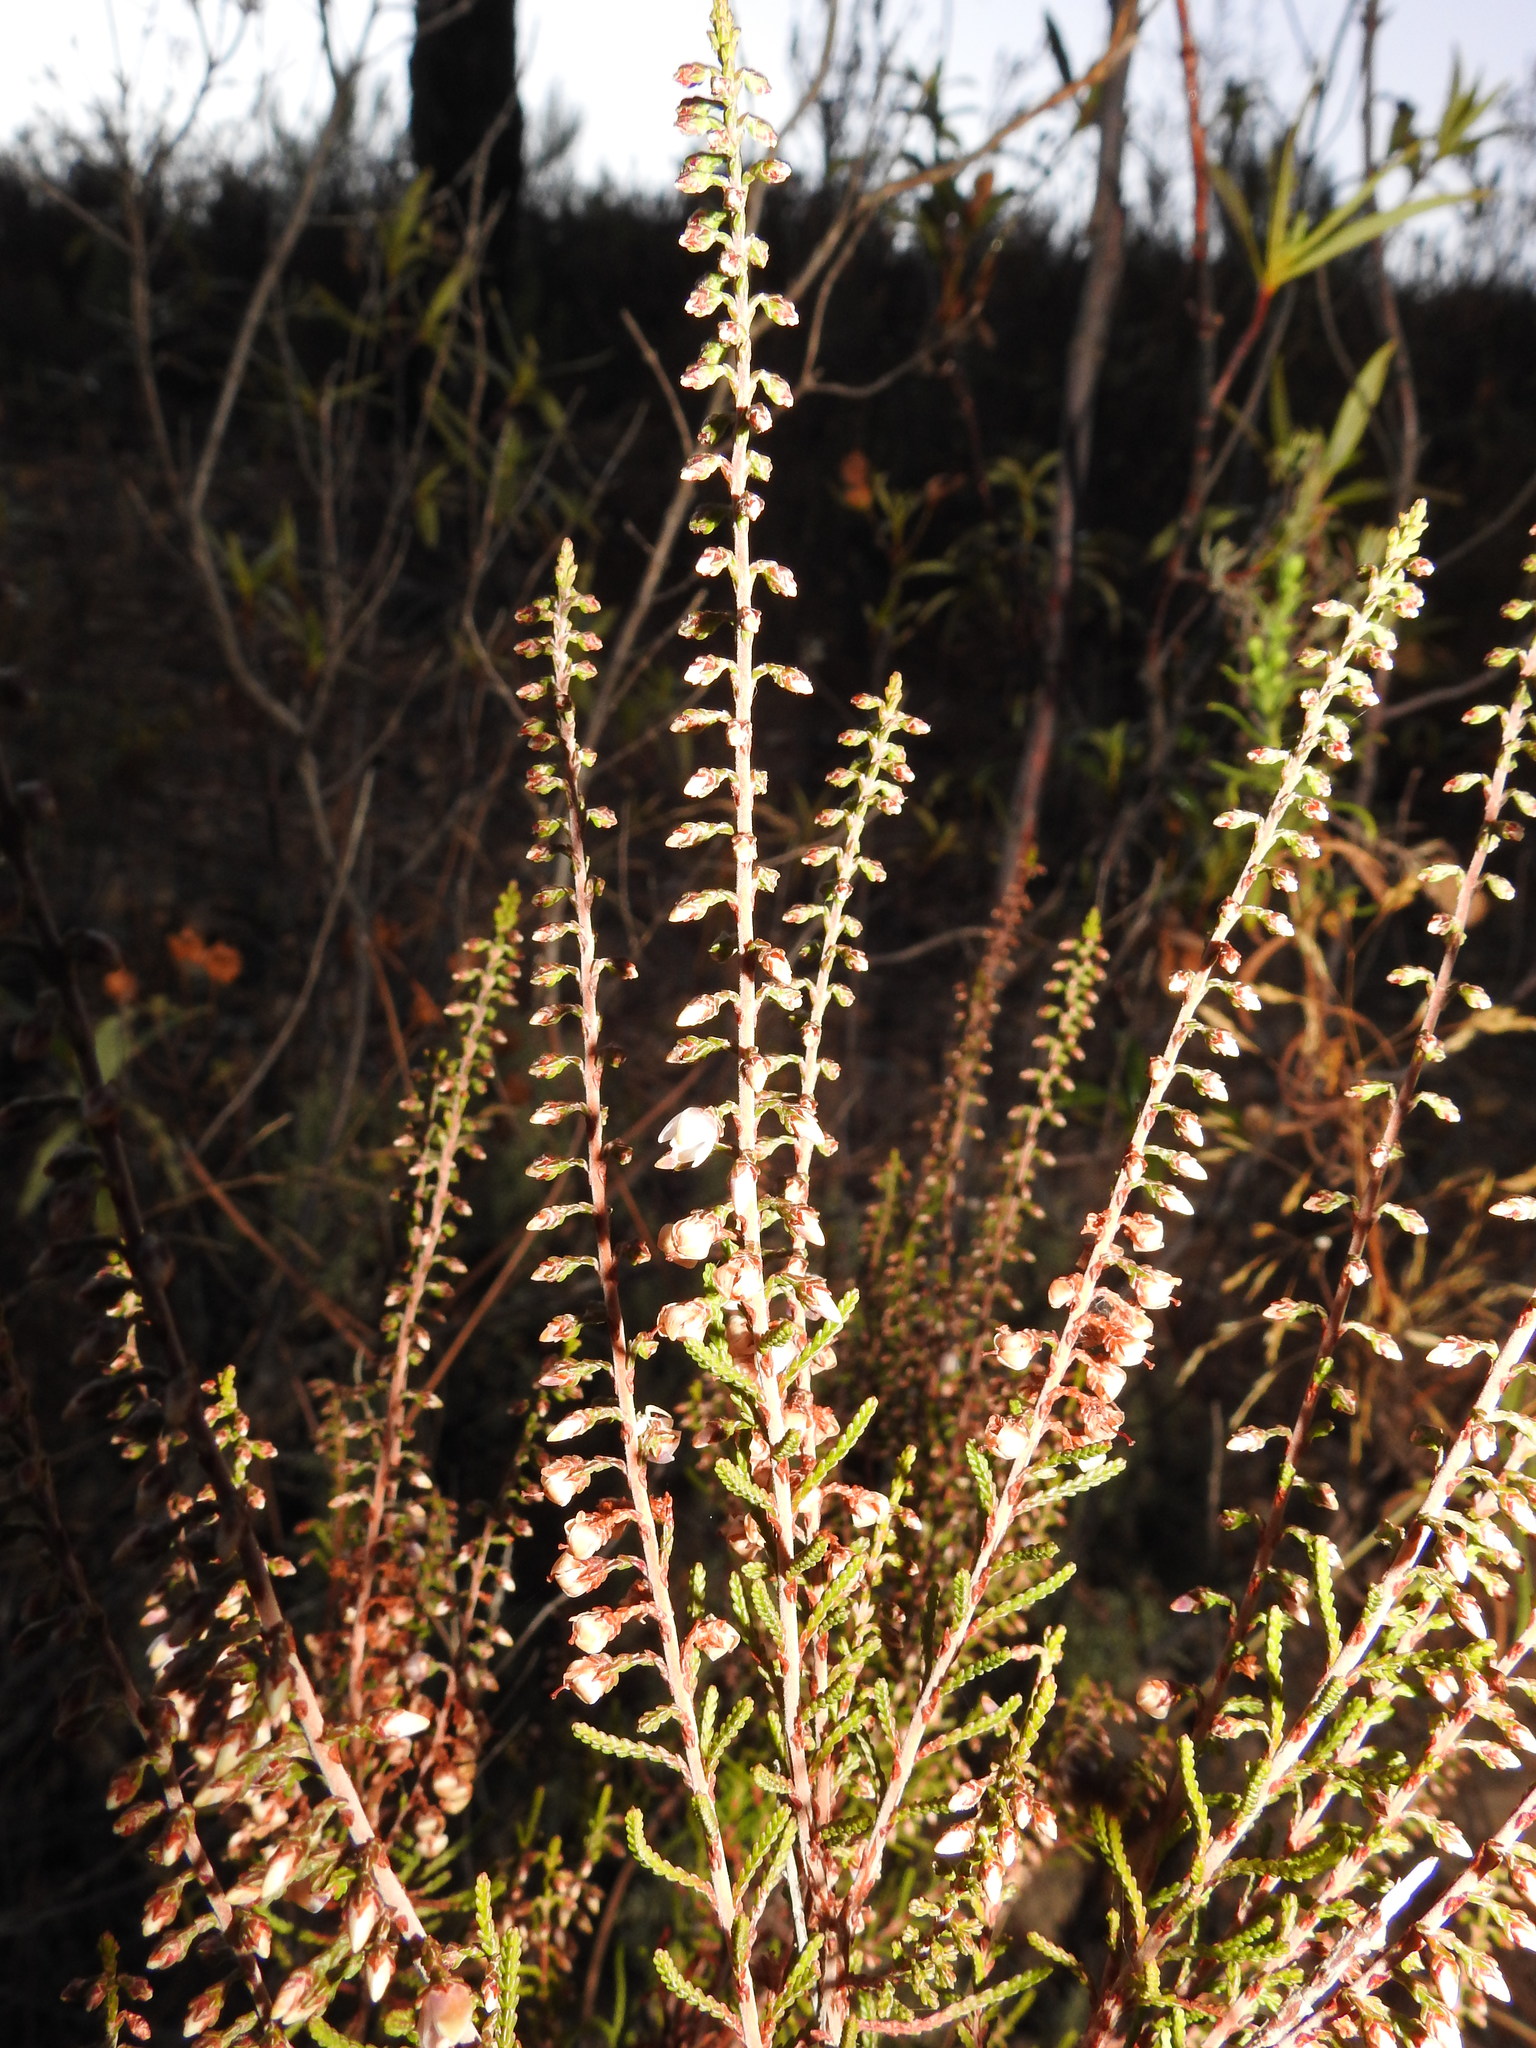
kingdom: Plantae
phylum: Tracheophyta
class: Magnoliopsida
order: Ericales
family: Ericaceae
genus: Calluna
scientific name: Calluna vulgaris
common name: Heather
